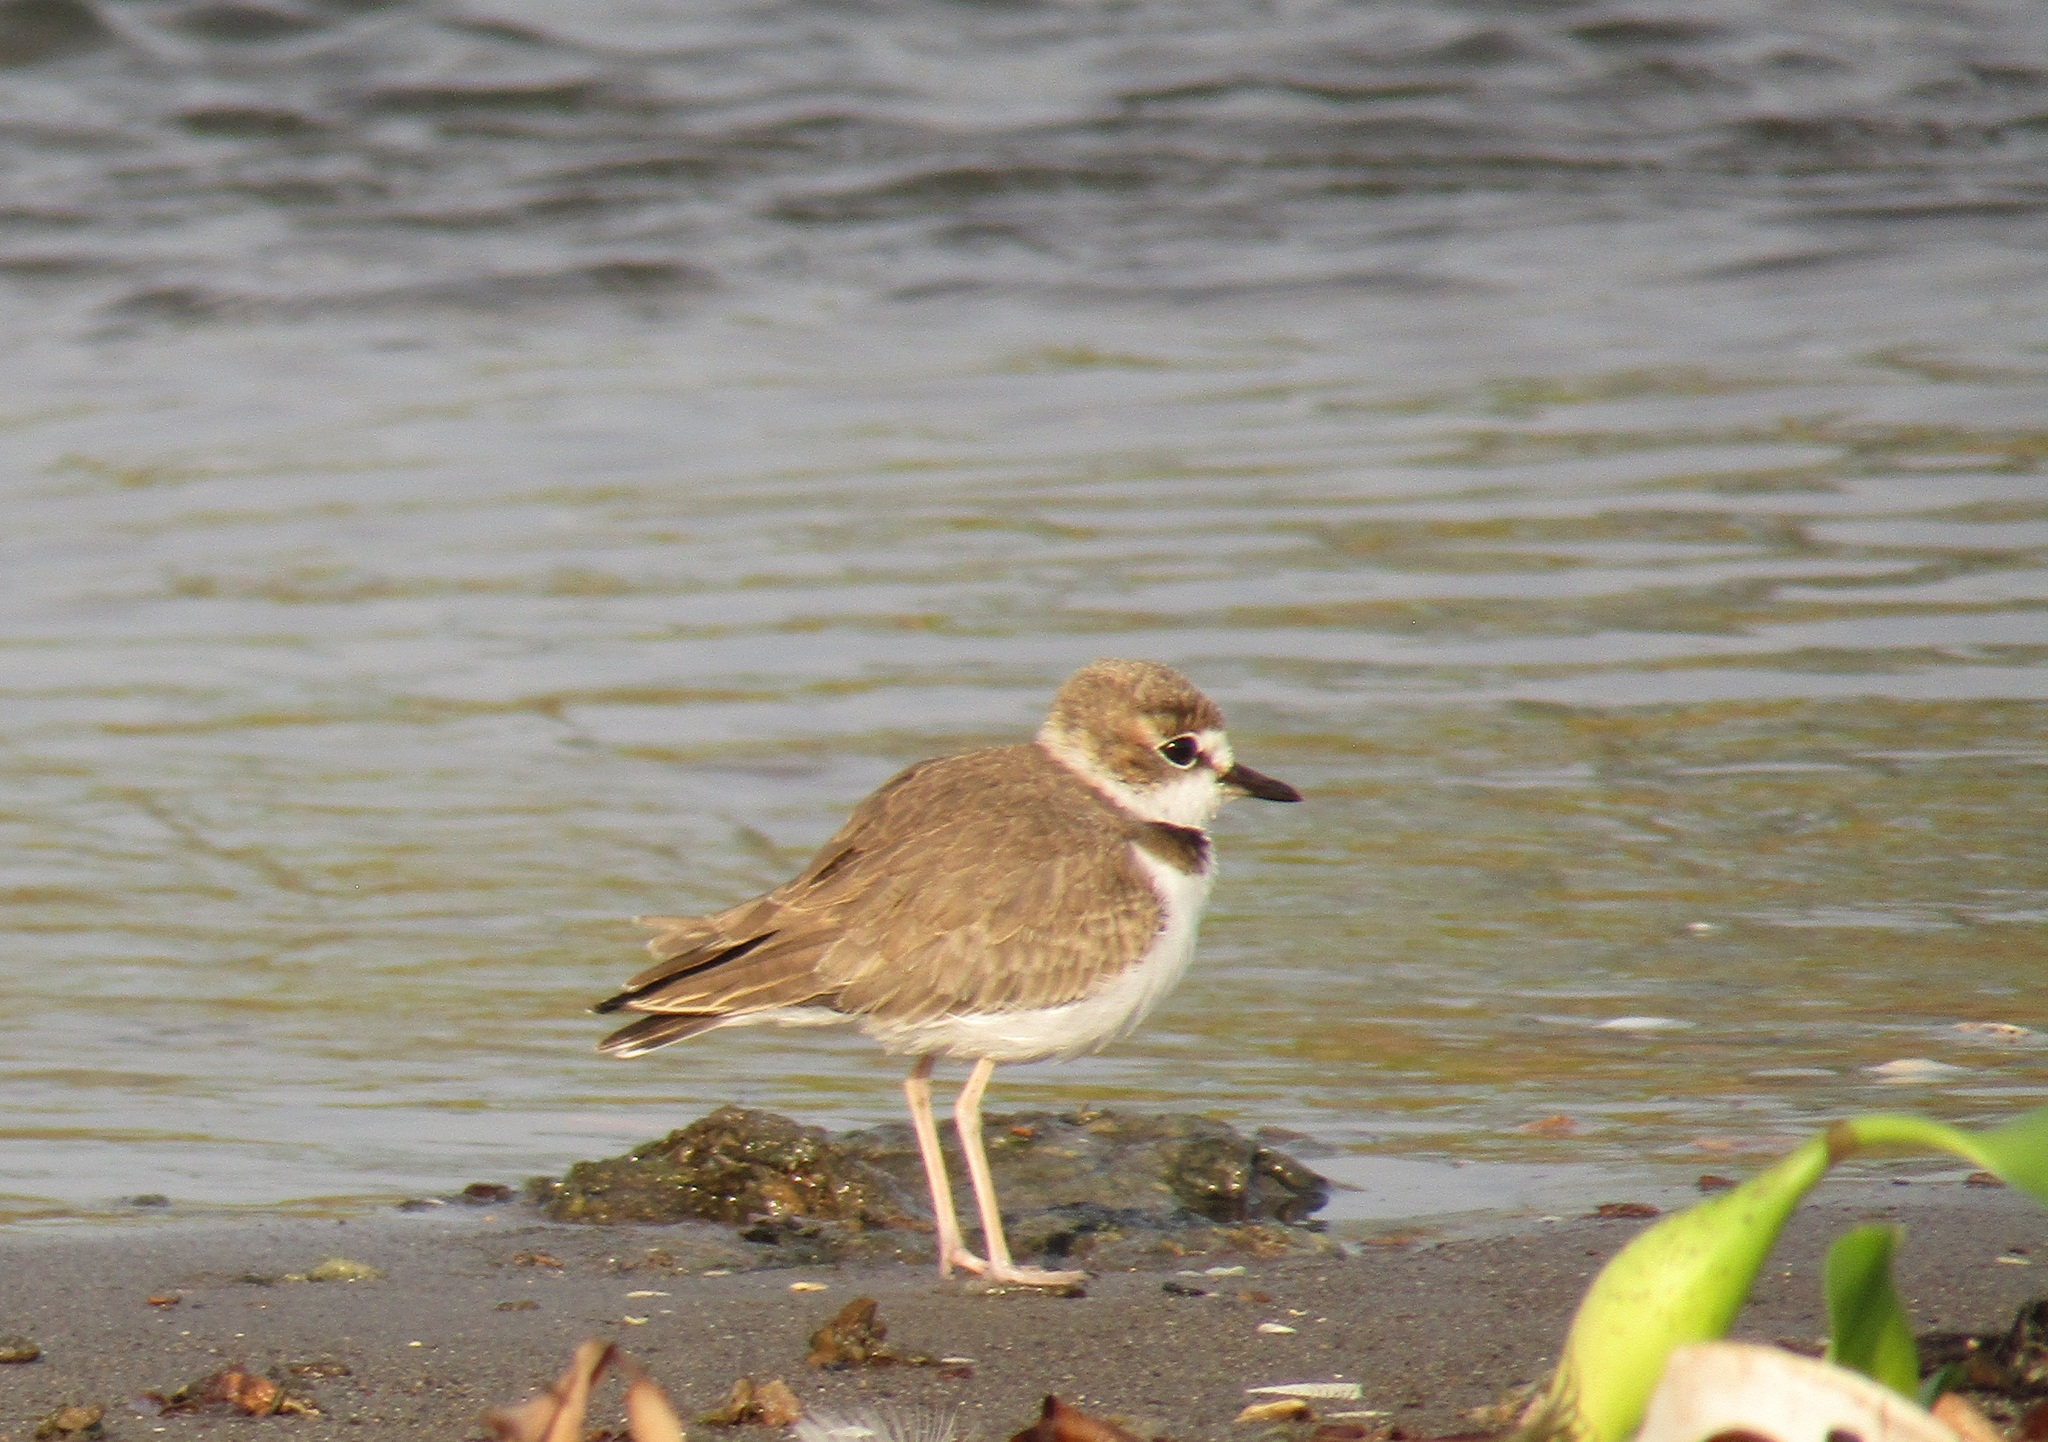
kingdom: Animalia
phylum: Chordata
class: Aves
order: Charadriiformes
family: Charadriidae
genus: Anarhynchus
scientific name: Anarhynchus
